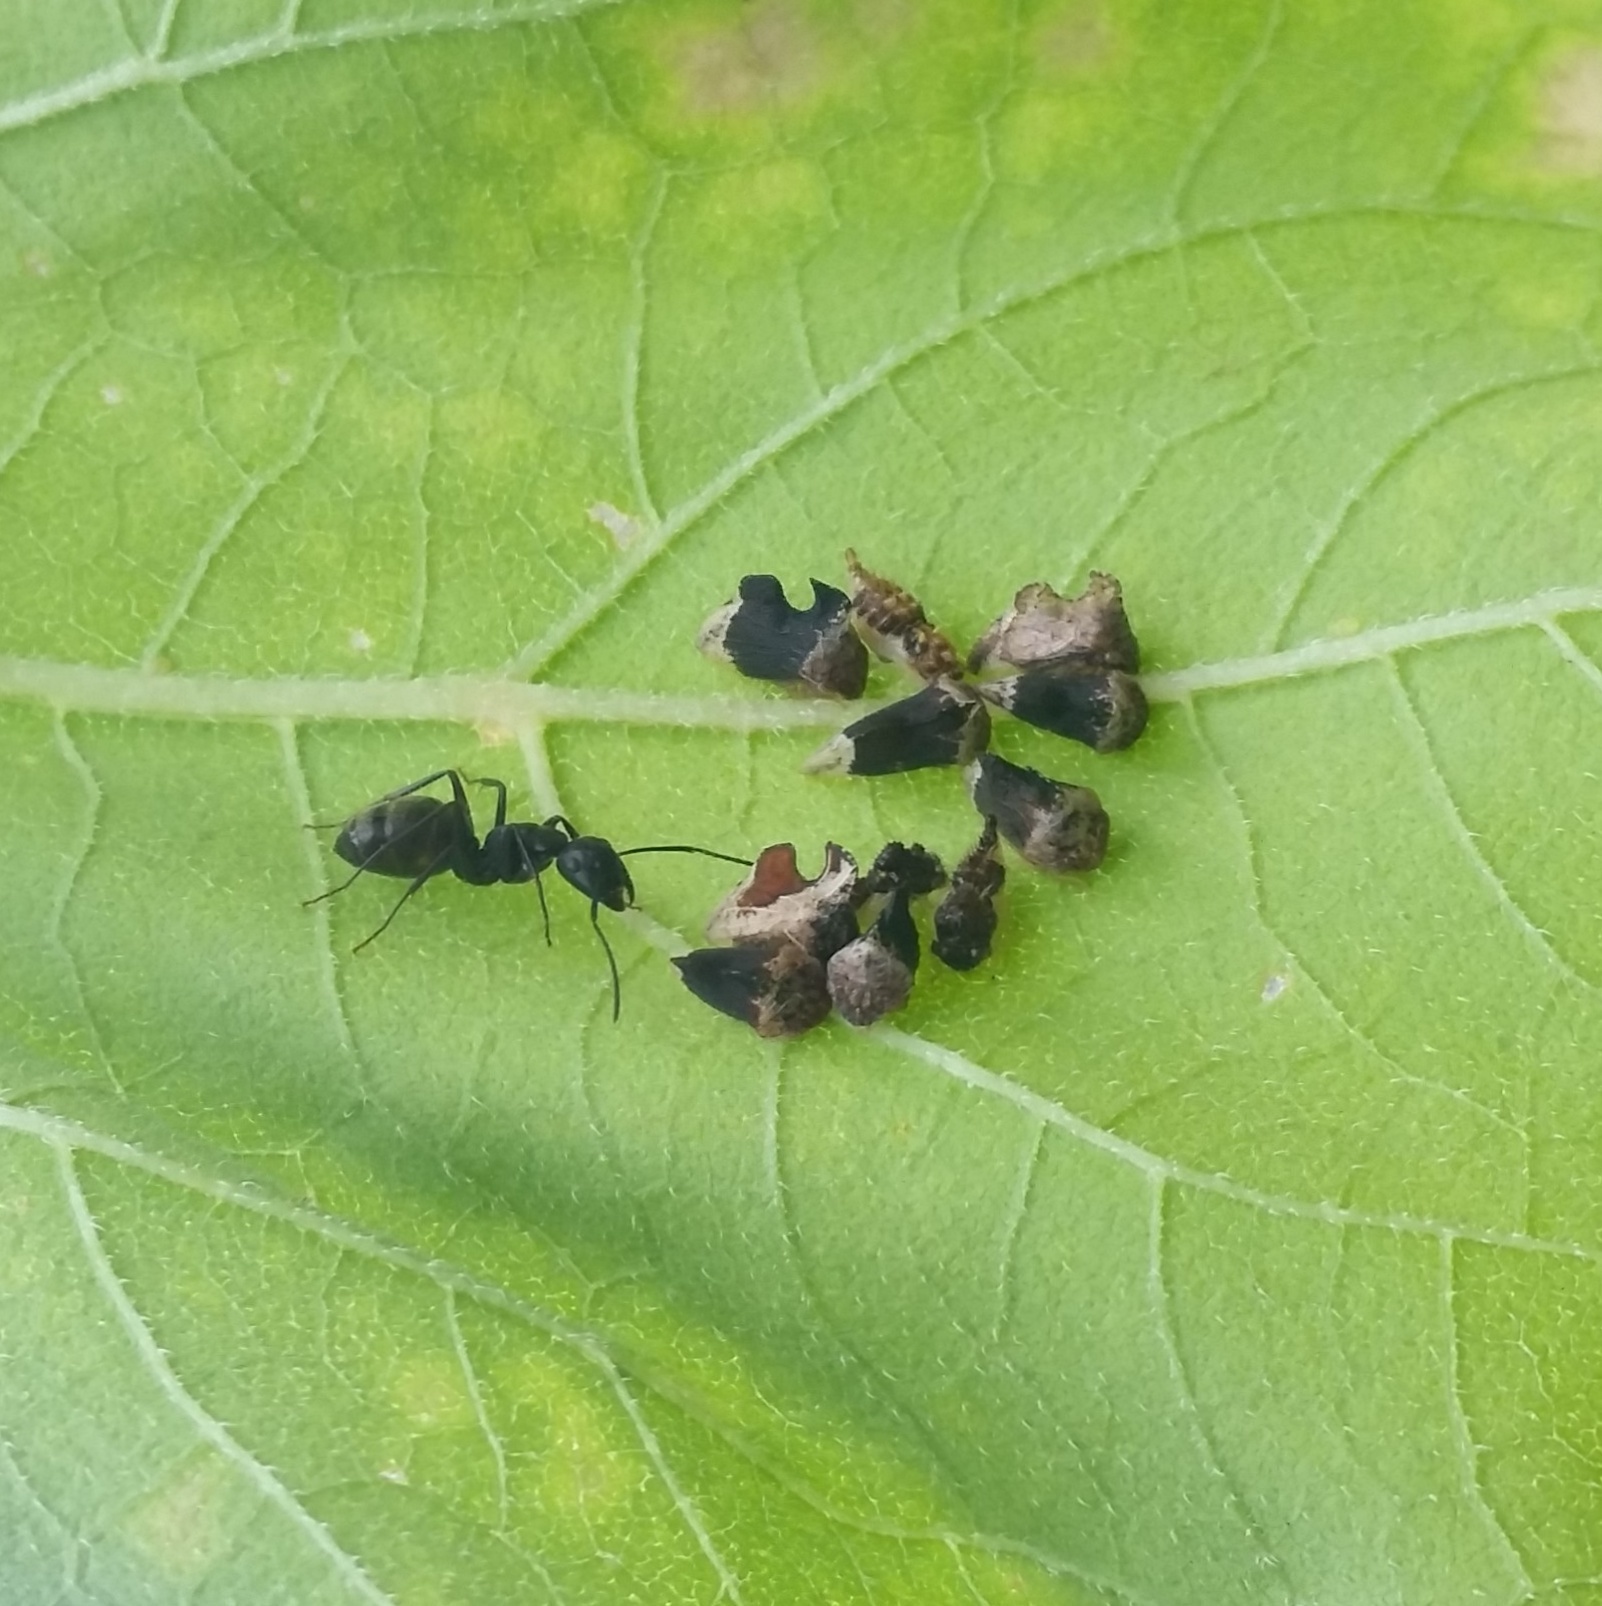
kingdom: Animalia
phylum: Arthropoda
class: Insecta
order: Hemiptera
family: Membracidae
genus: Entylia
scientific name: Entylia carinata
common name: Keeled treehopper
